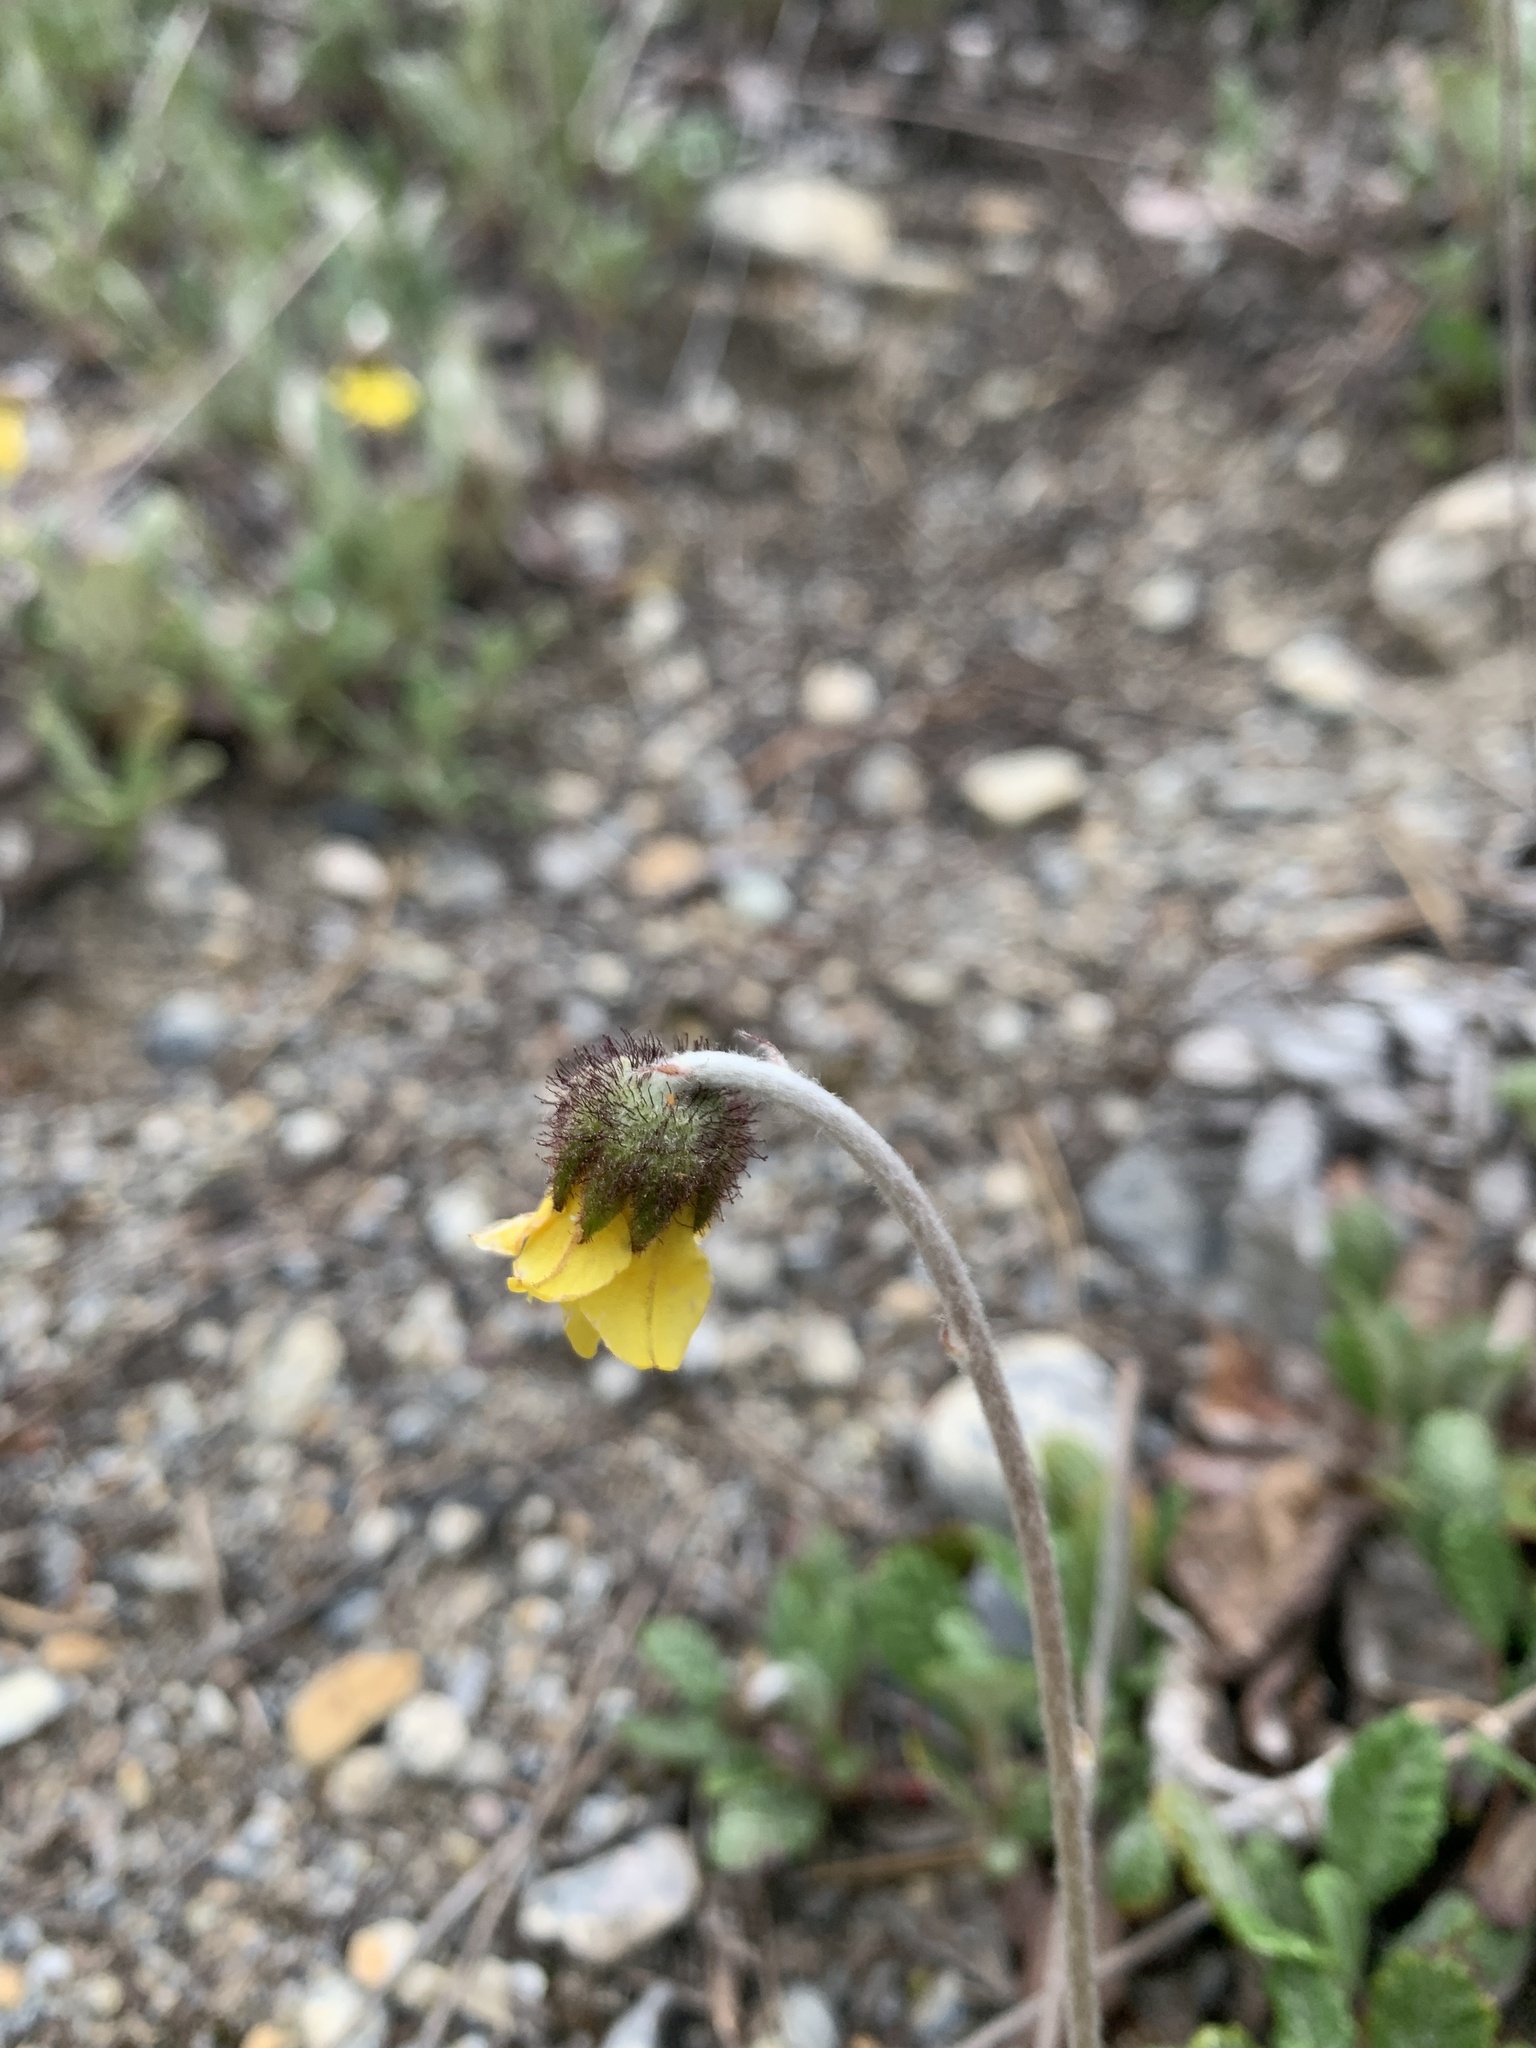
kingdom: Plantae
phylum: Tracheophyta
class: Magnoliopsida
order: Rosales
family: Rosaceae
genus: Dryas
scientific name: Dryas drummondii
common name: Drummond's dryad
